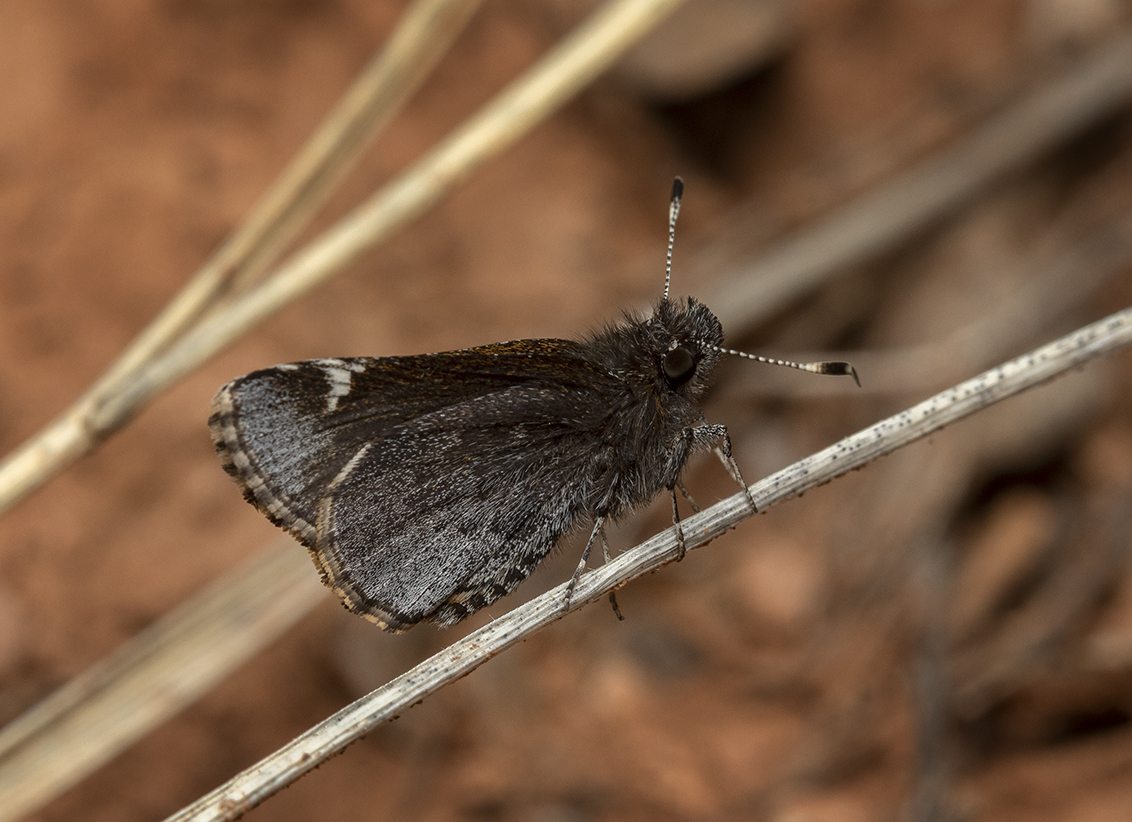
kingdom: Animalia
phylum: Arthropoda
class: Insecta
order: Lepidoptera
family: Hesperiidae
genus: Mastor
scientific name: Mastor vialis
